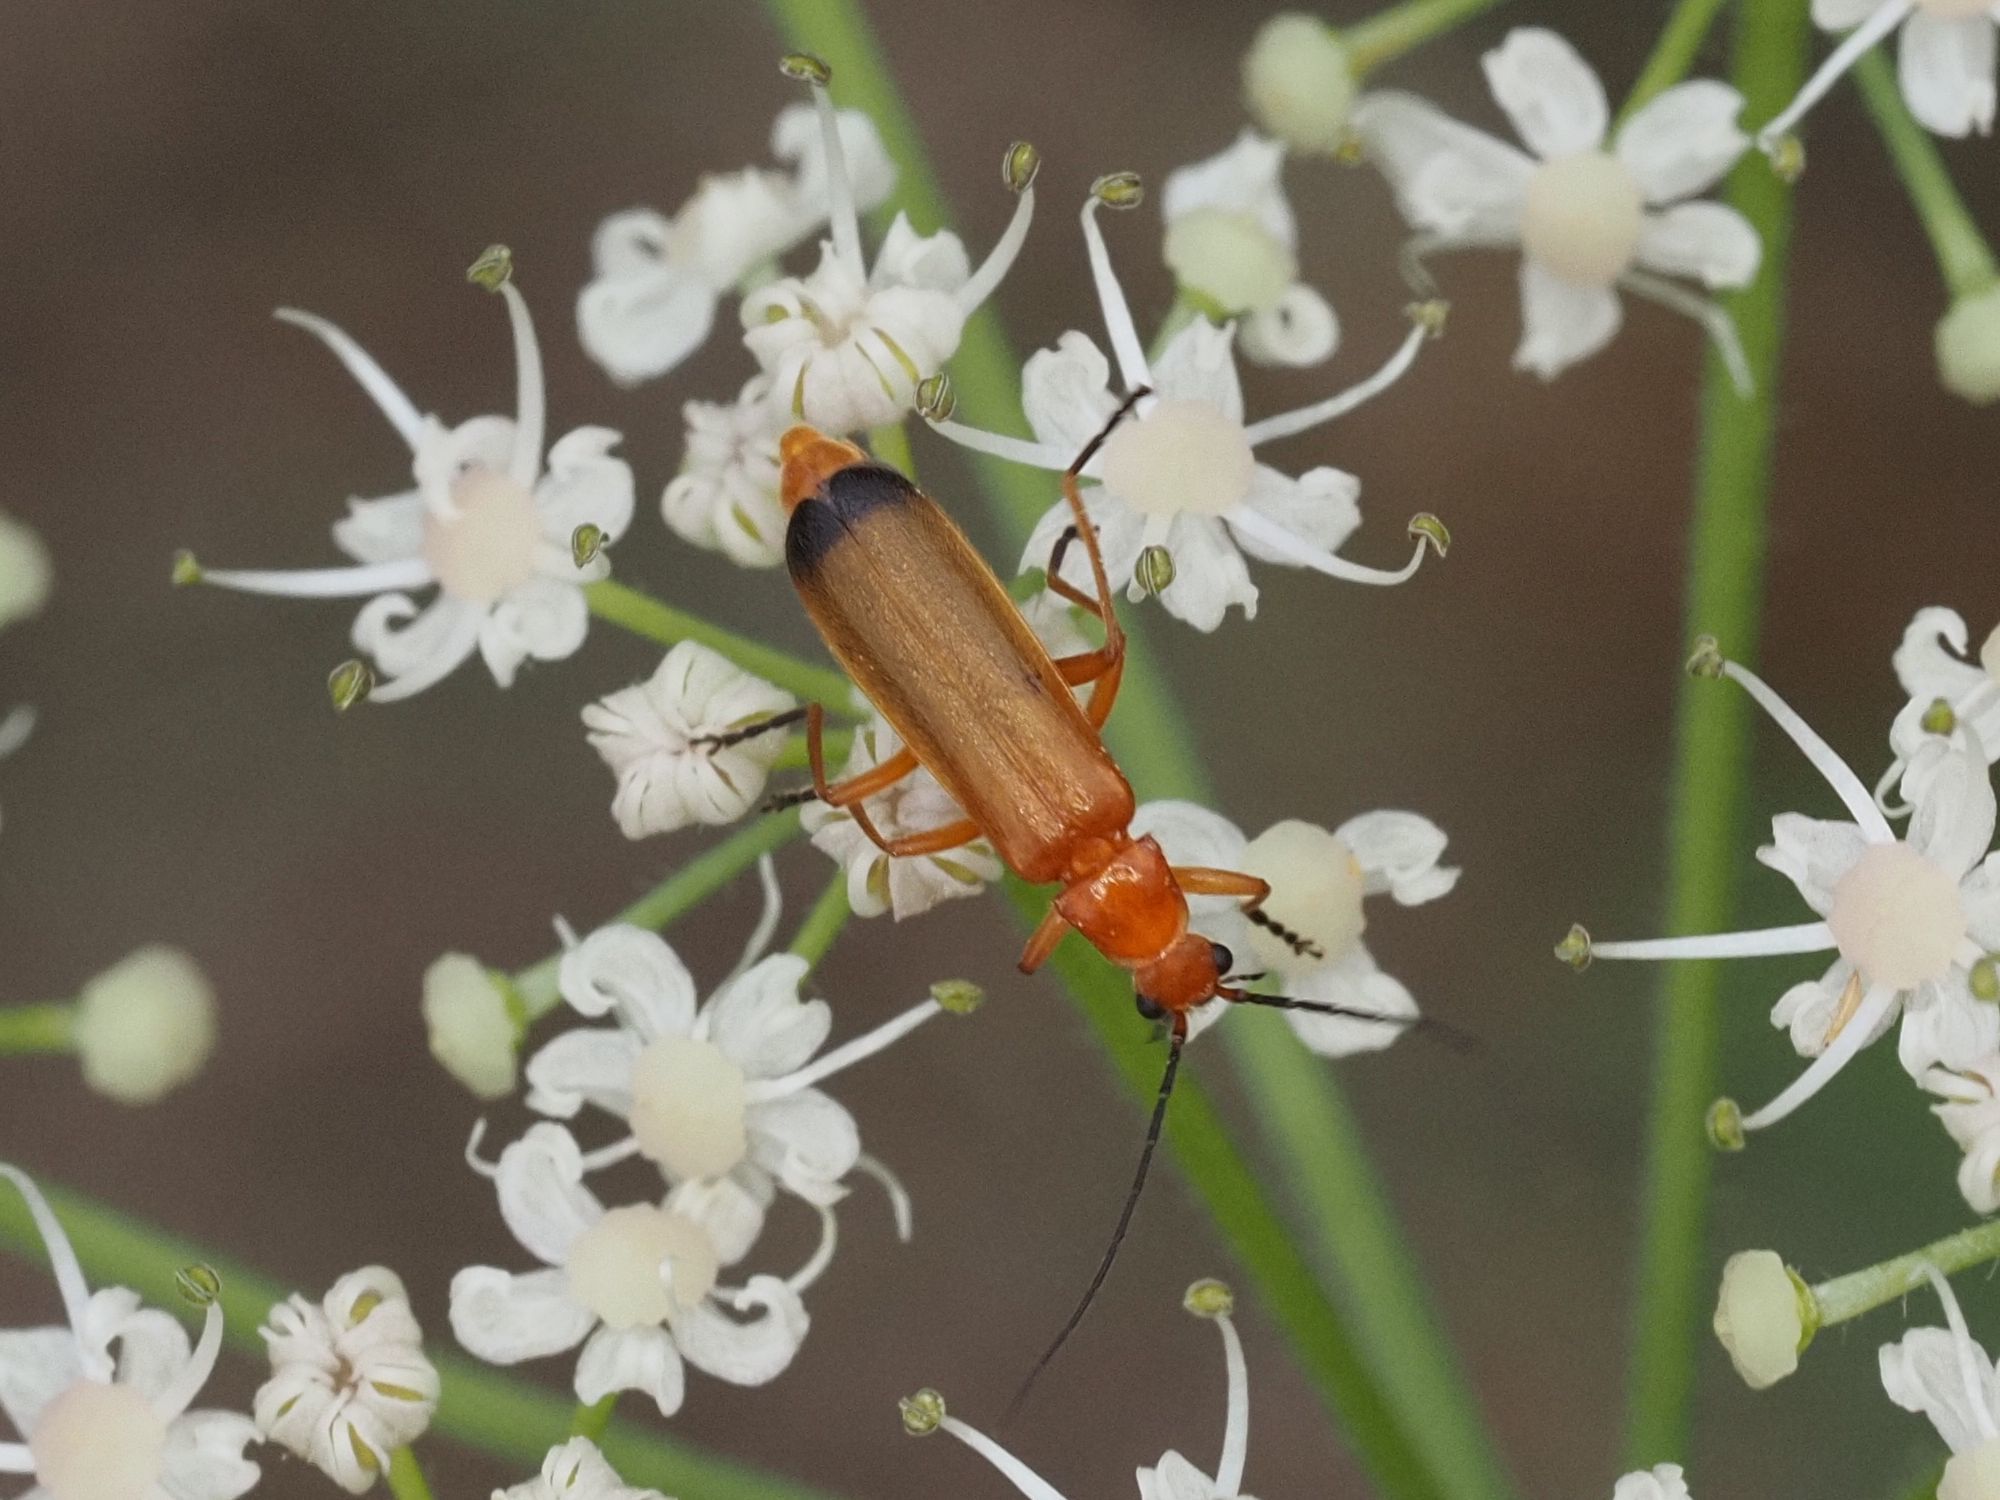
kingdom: Animalia
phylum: Arthropoda
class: Insecta
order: Coleoptera
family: Cantharidae
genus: Rhagonycha
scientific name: Rhagonycha fulva
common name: Common red soldier beetle
